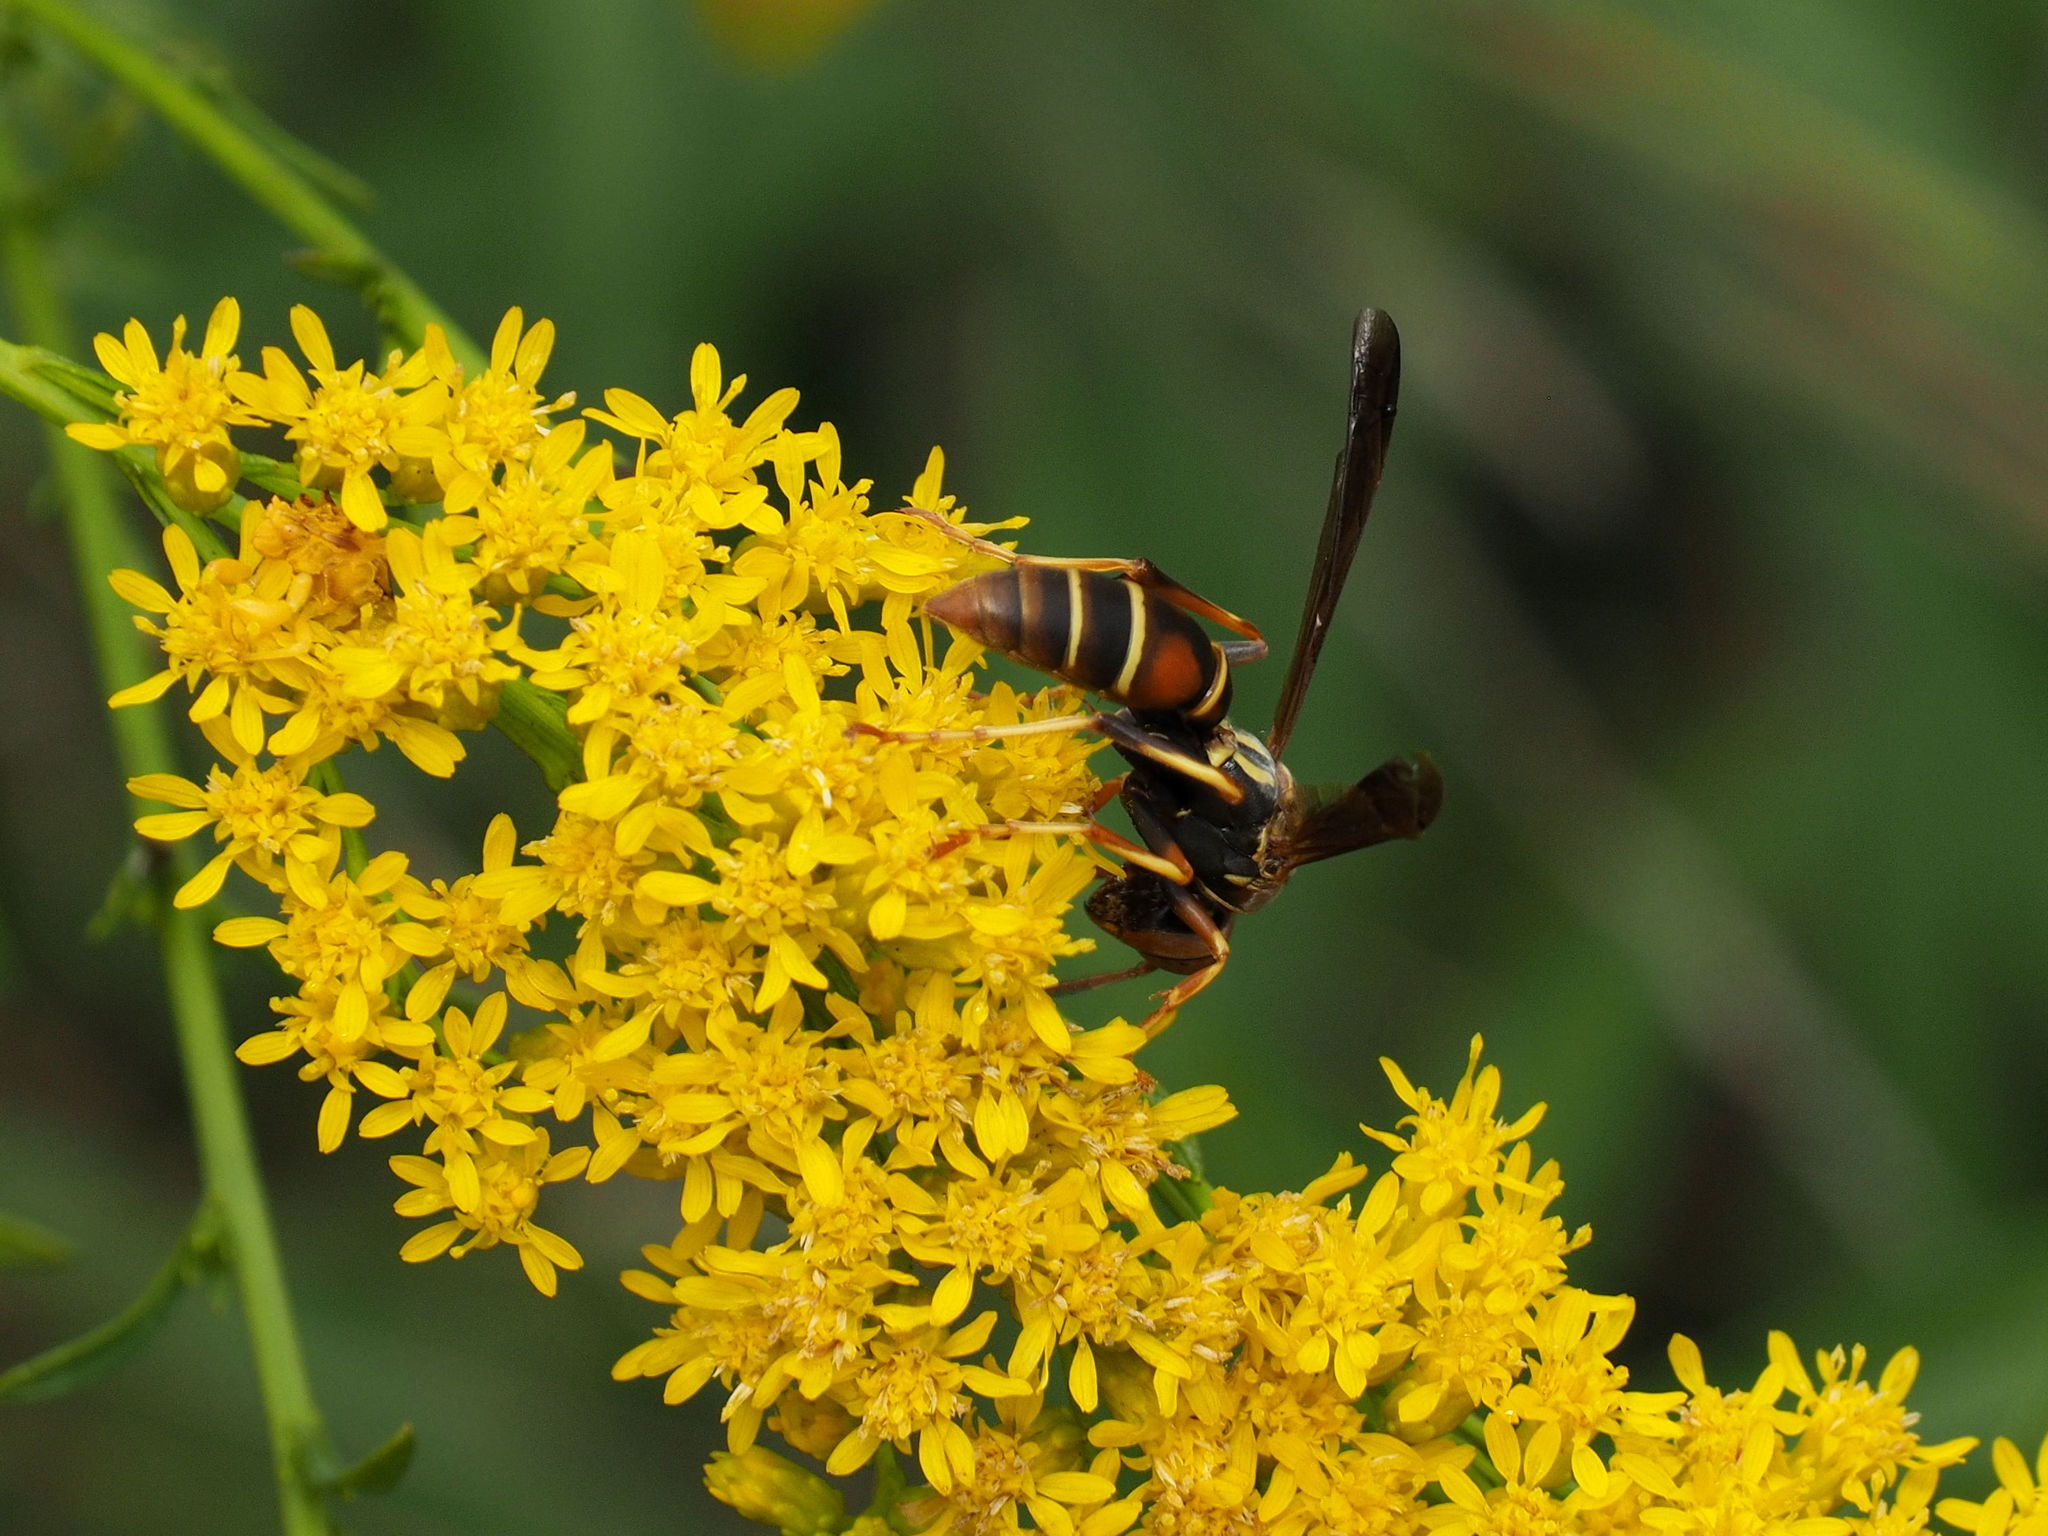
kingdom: Animalia
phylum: Arthropoda
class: Insecta
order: Hymenoptera
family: Eumenidae
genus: Polistes
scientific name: Polistes fuscatus
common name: Dark paper wasp
